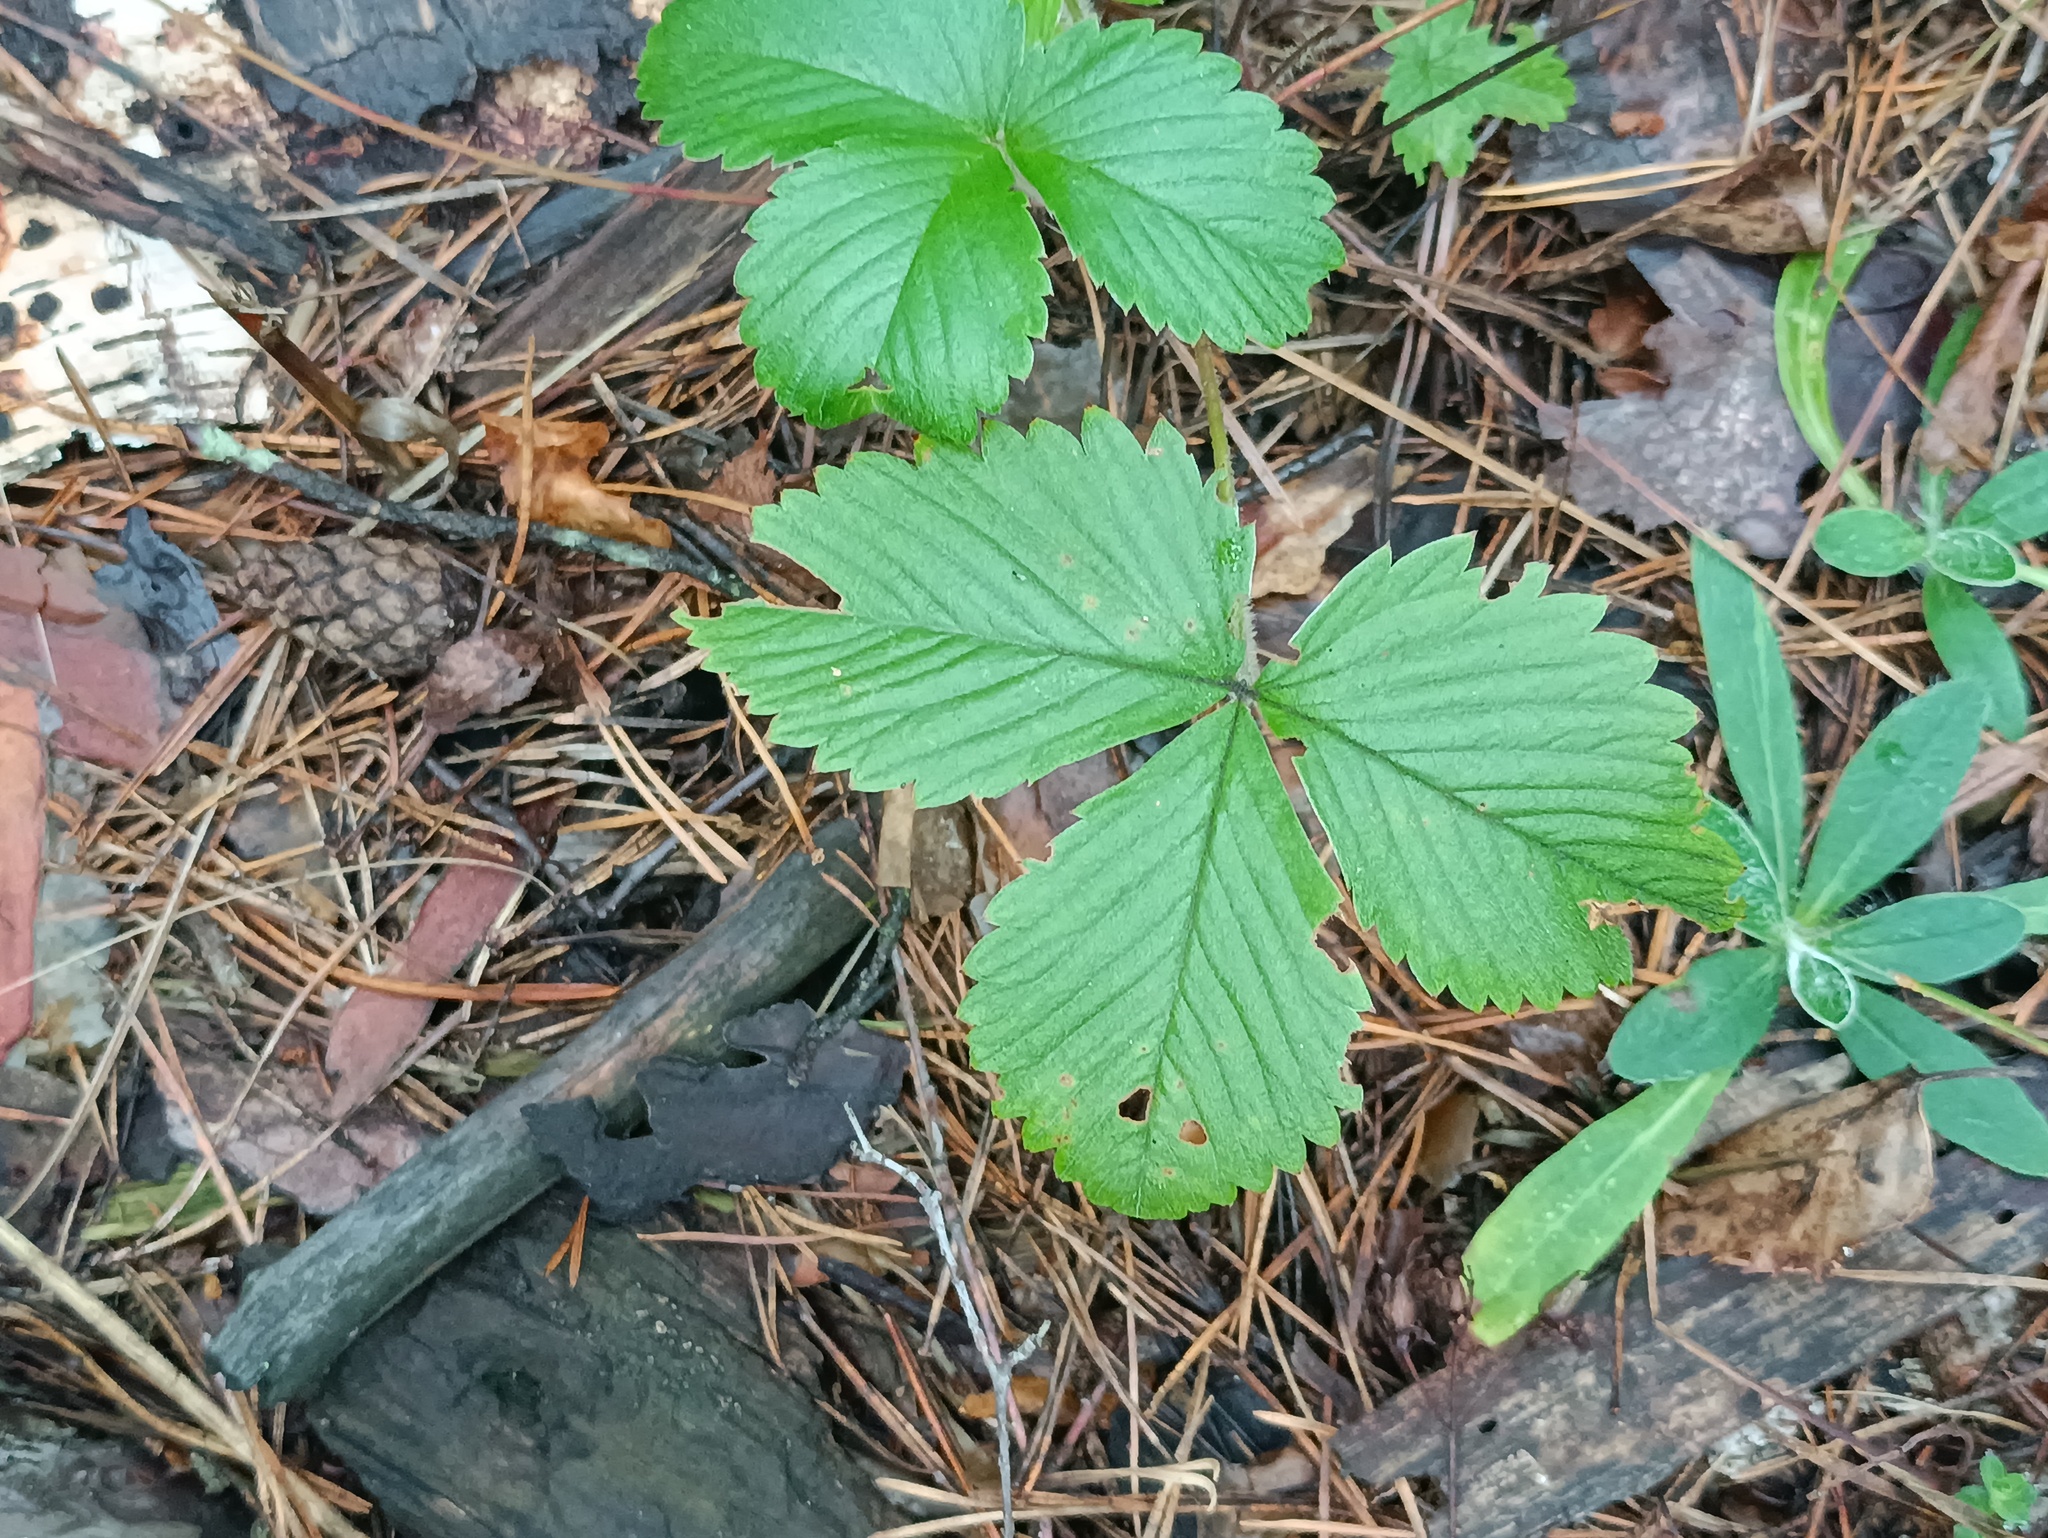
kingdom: Plantae
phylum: Tracheophyta
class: Magnoliopsida
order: Rosales
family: Rosaceae
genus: Fragaria
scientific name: Fragaria vesca
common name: Wild strawberry
